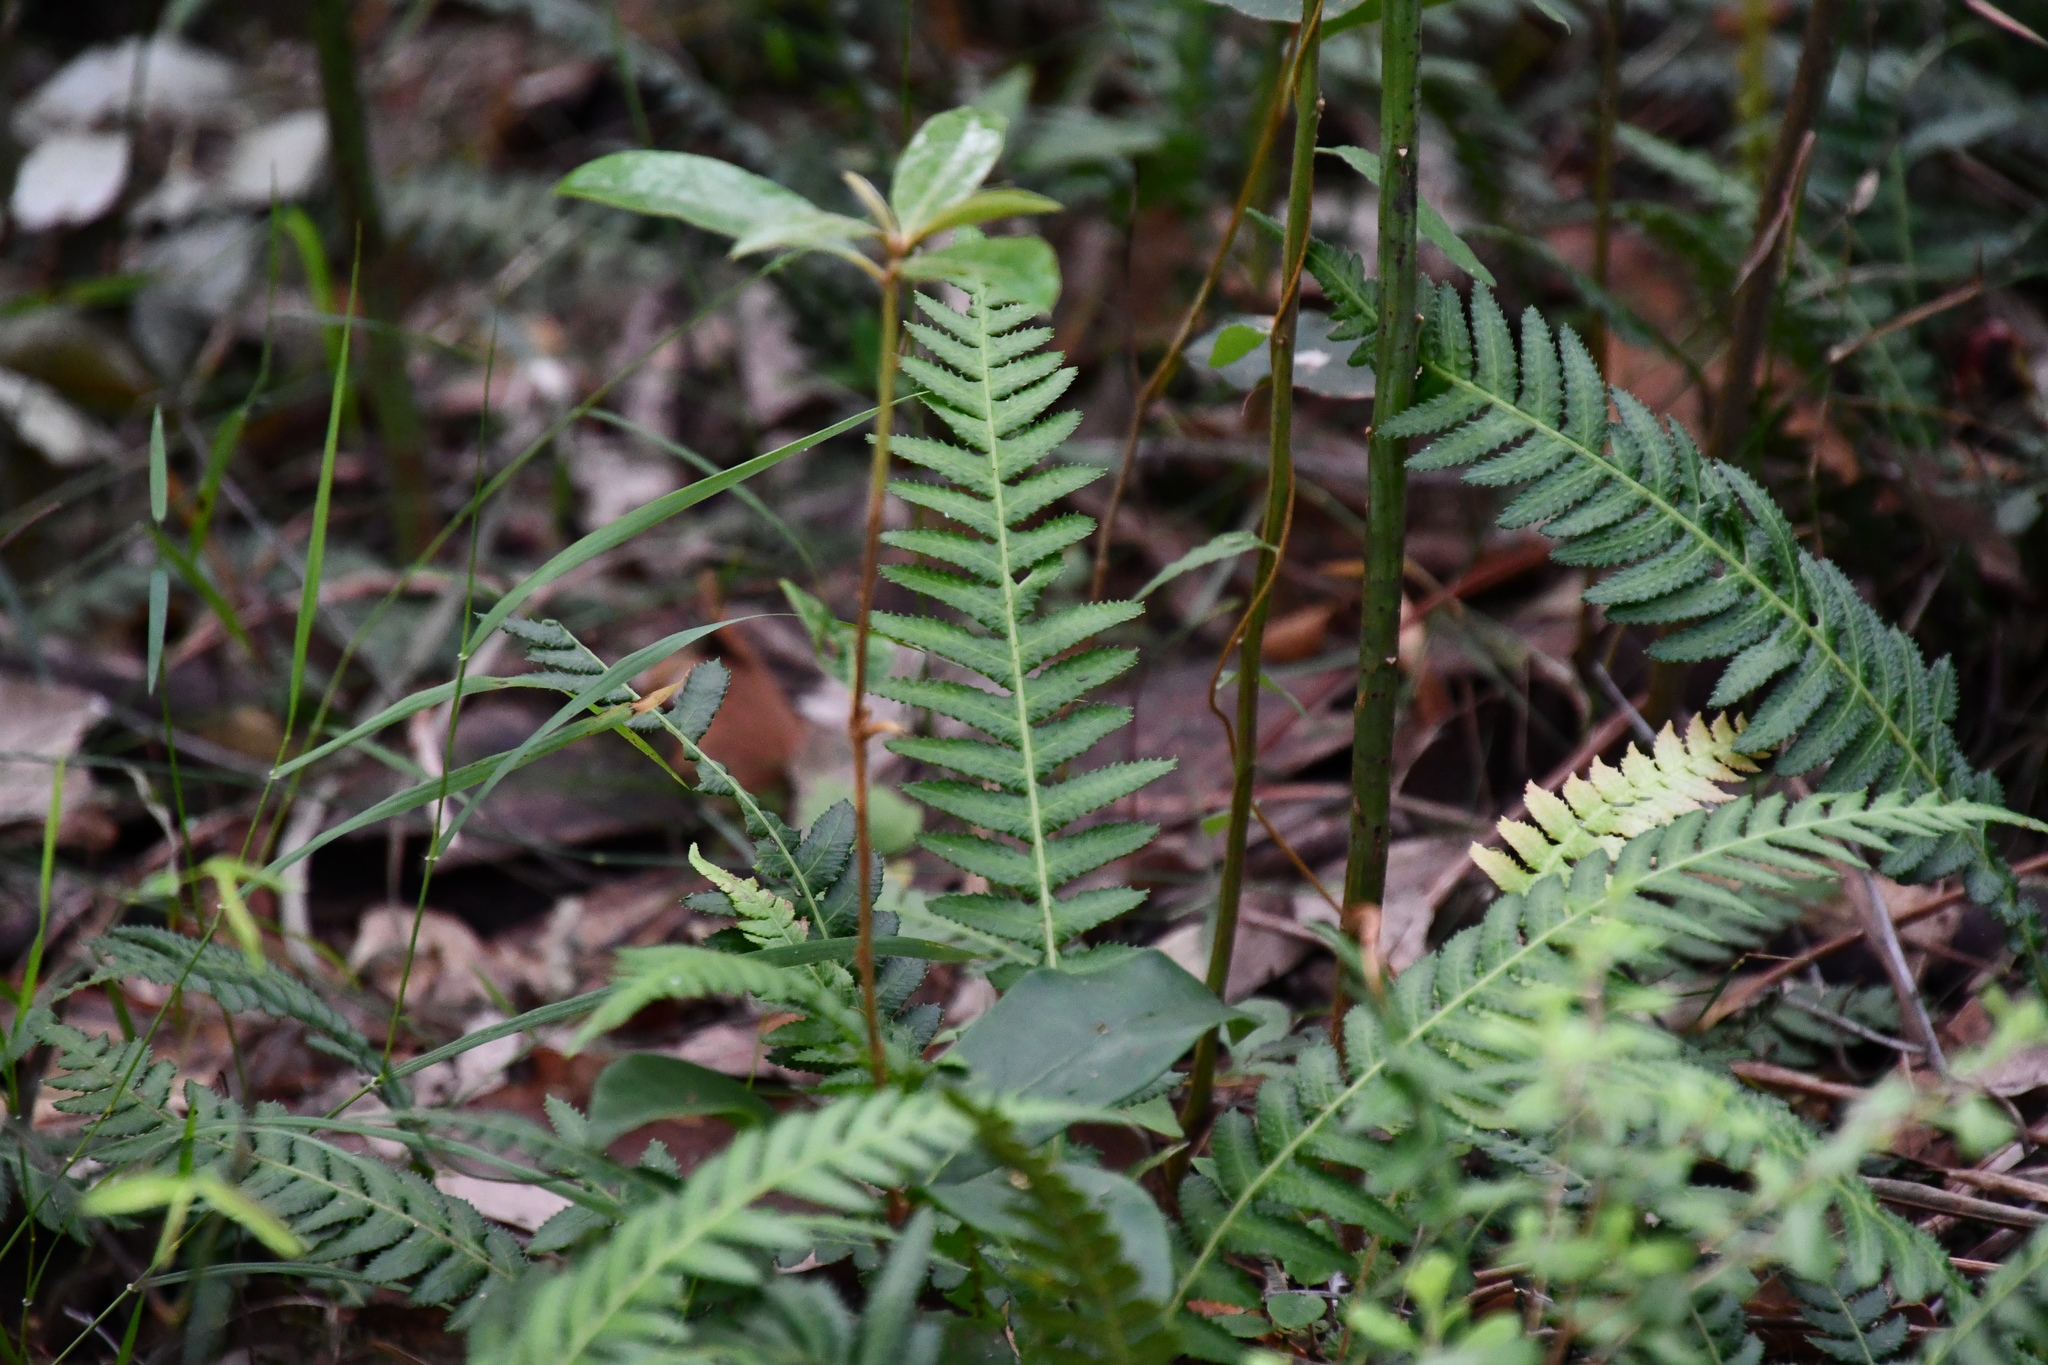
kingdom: Plantae
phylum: Tracheophyta
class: Polypodiopsida
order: Polypodiales
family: Blechnaceae
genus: Doodia
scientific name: Doodia aspera
